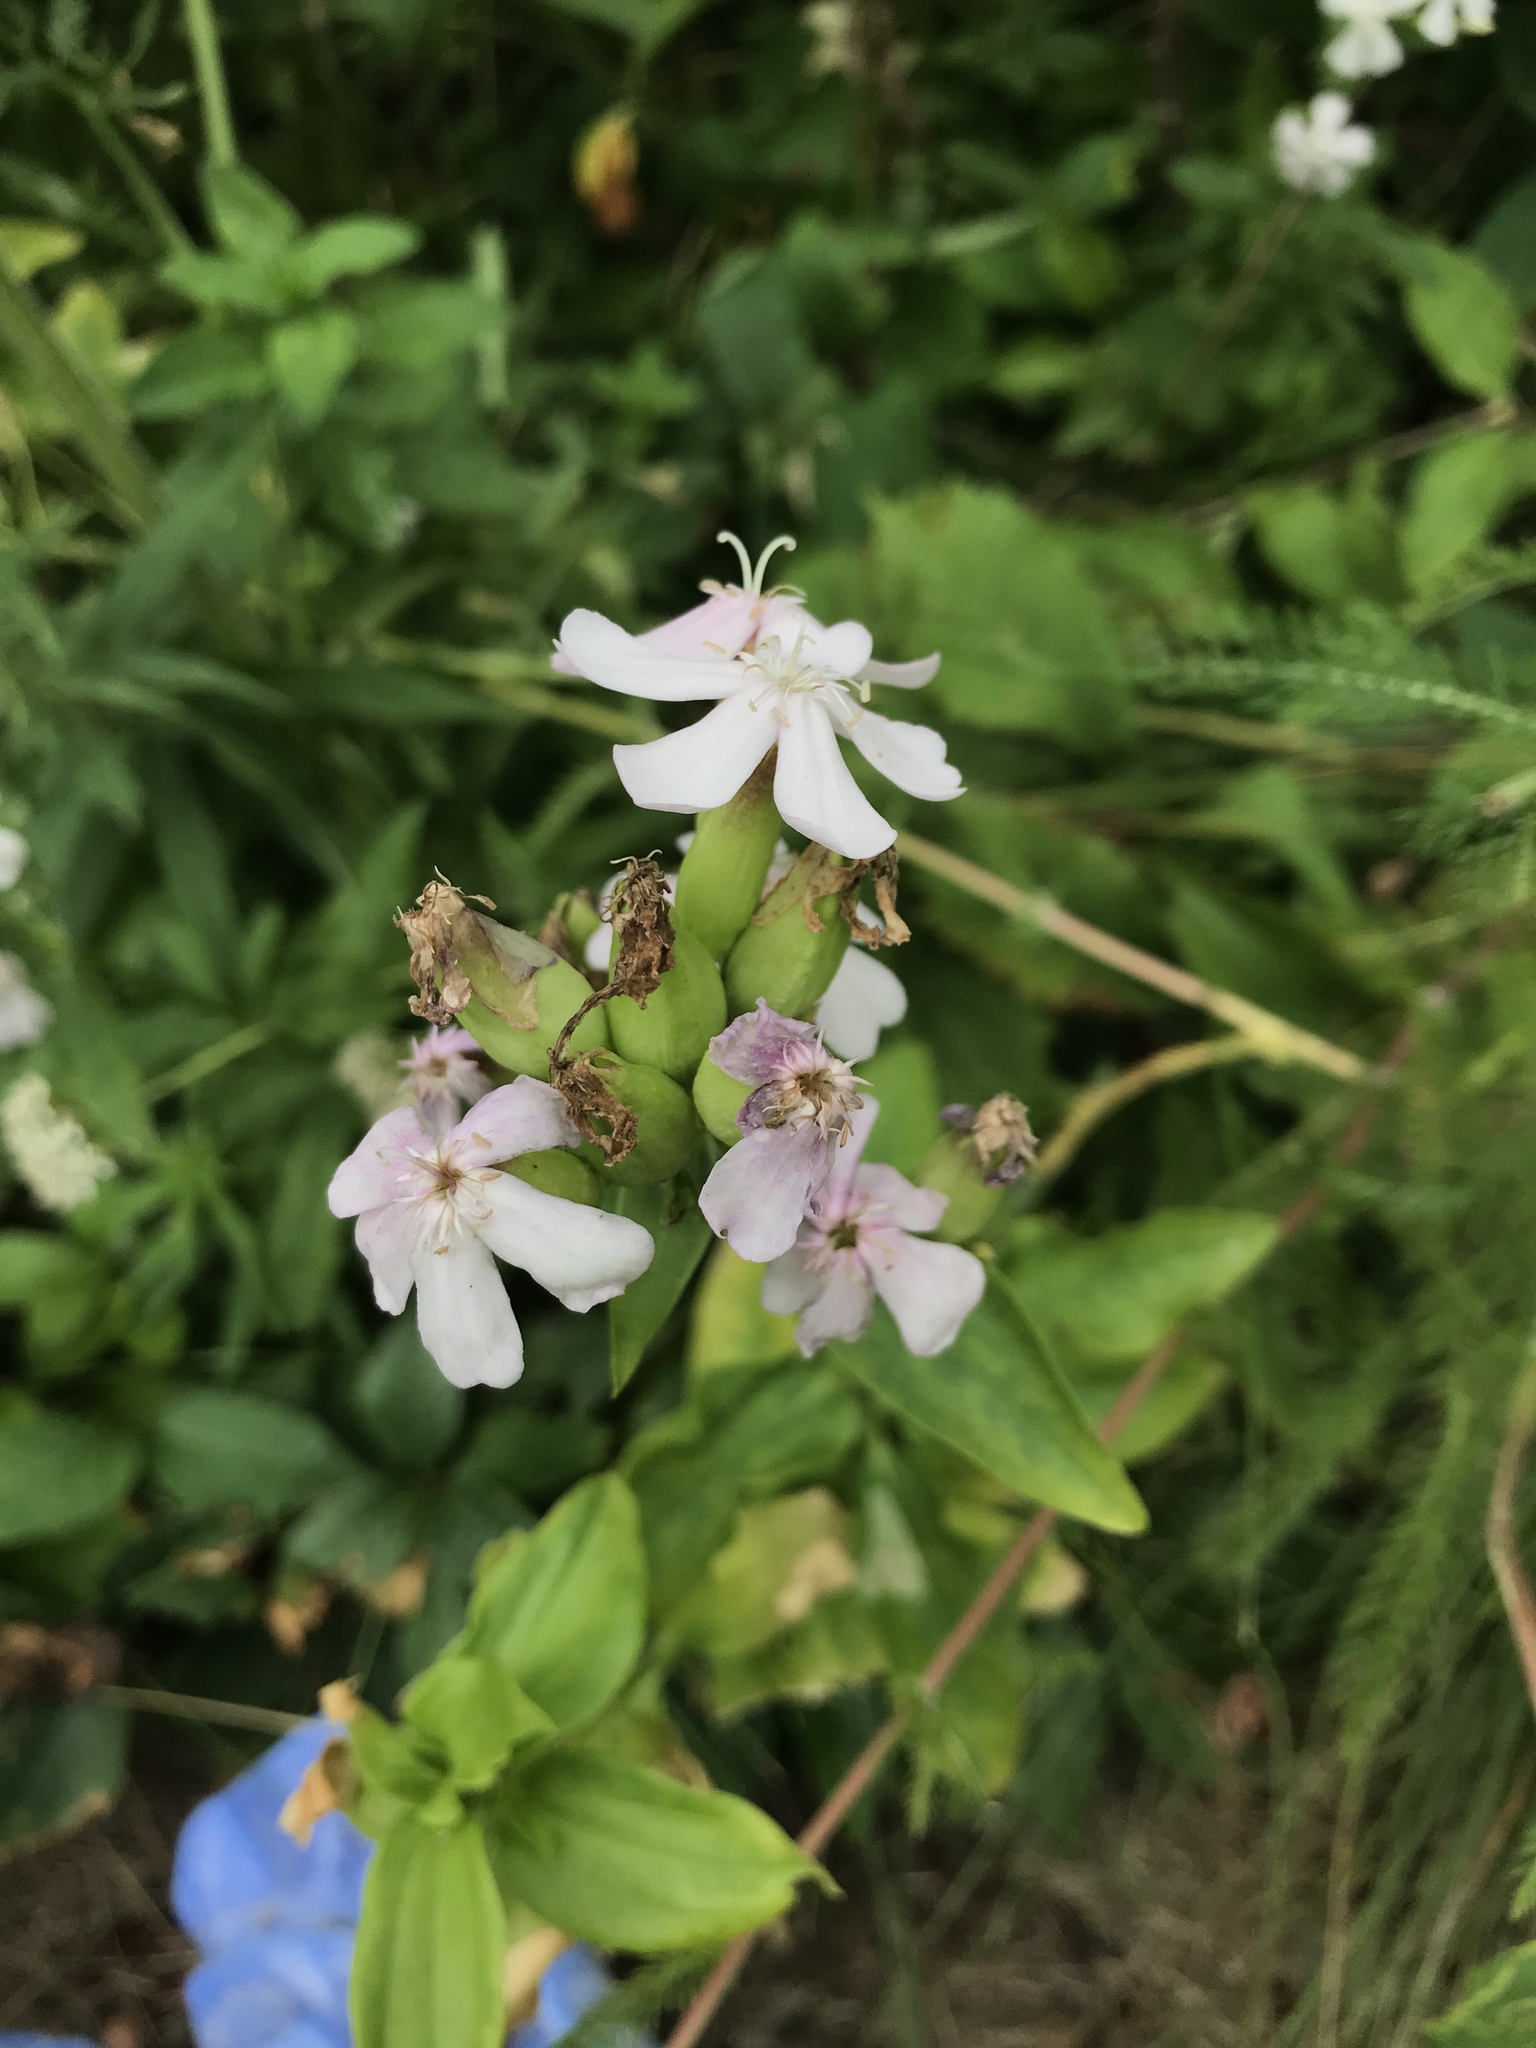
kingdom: Plantae
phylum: Tracheophyta
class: Magnoliopsida
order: Caryophyllales
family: Caryophyllaceae
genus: Saponaria
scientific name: Saponaria officinalis
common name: Soapwort
